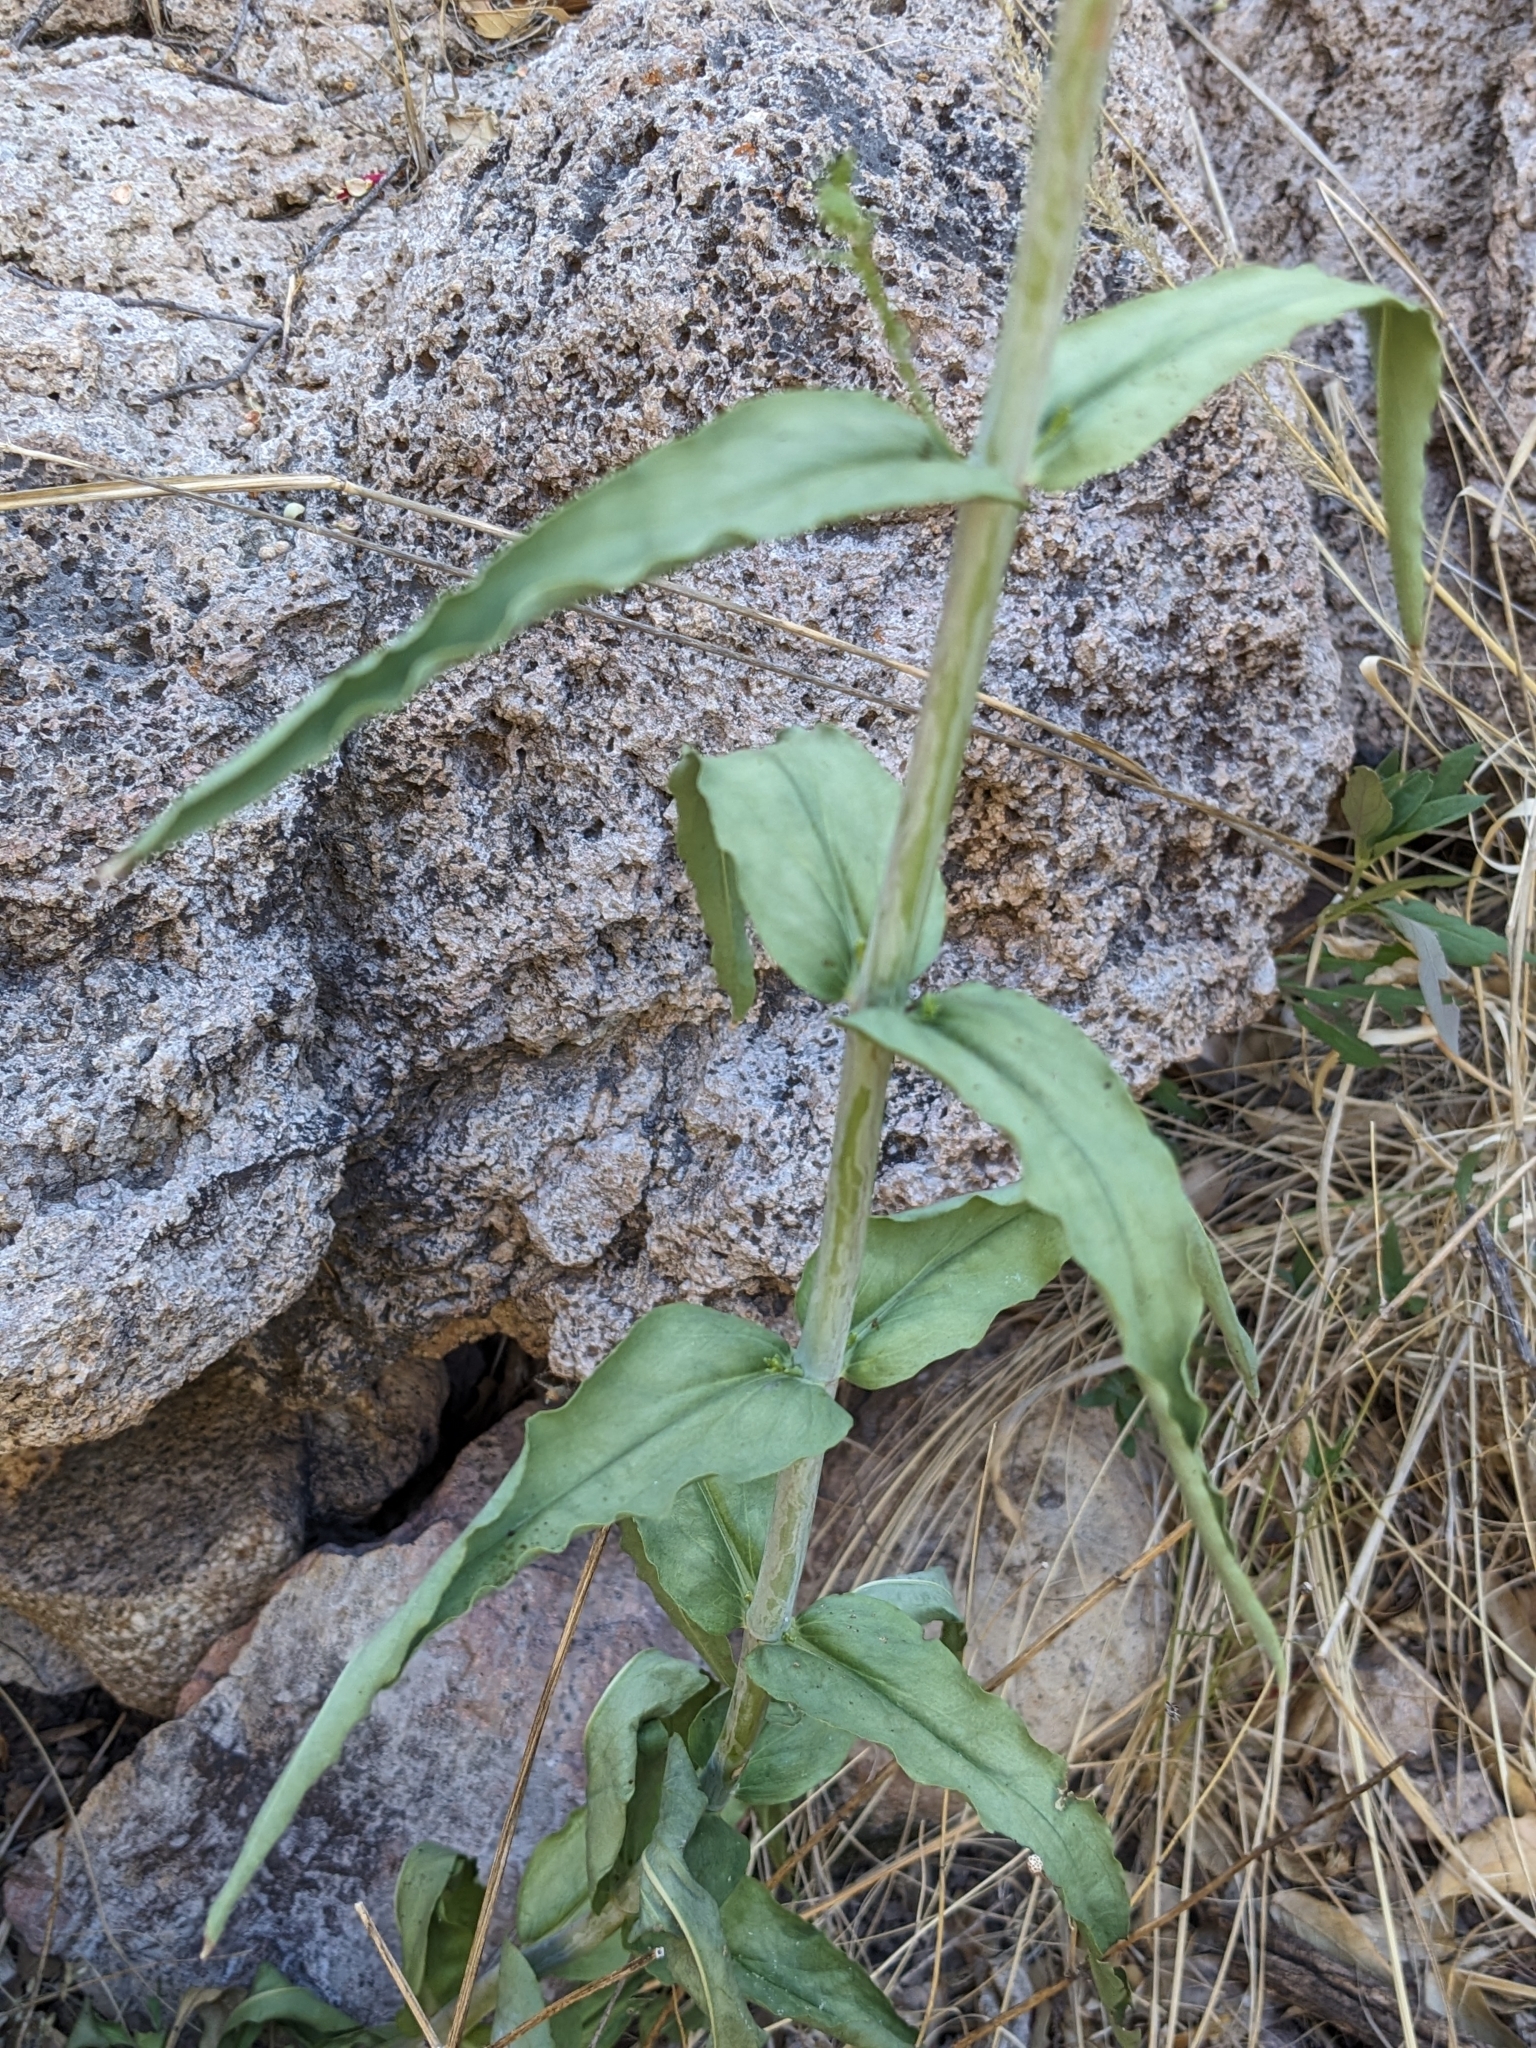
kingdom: Plantae
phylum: Tracheophyta
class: Magnoliopsida
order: Lamiales
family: Plantaginaceae
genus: Penstemon
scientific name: Penstemon barbatus
